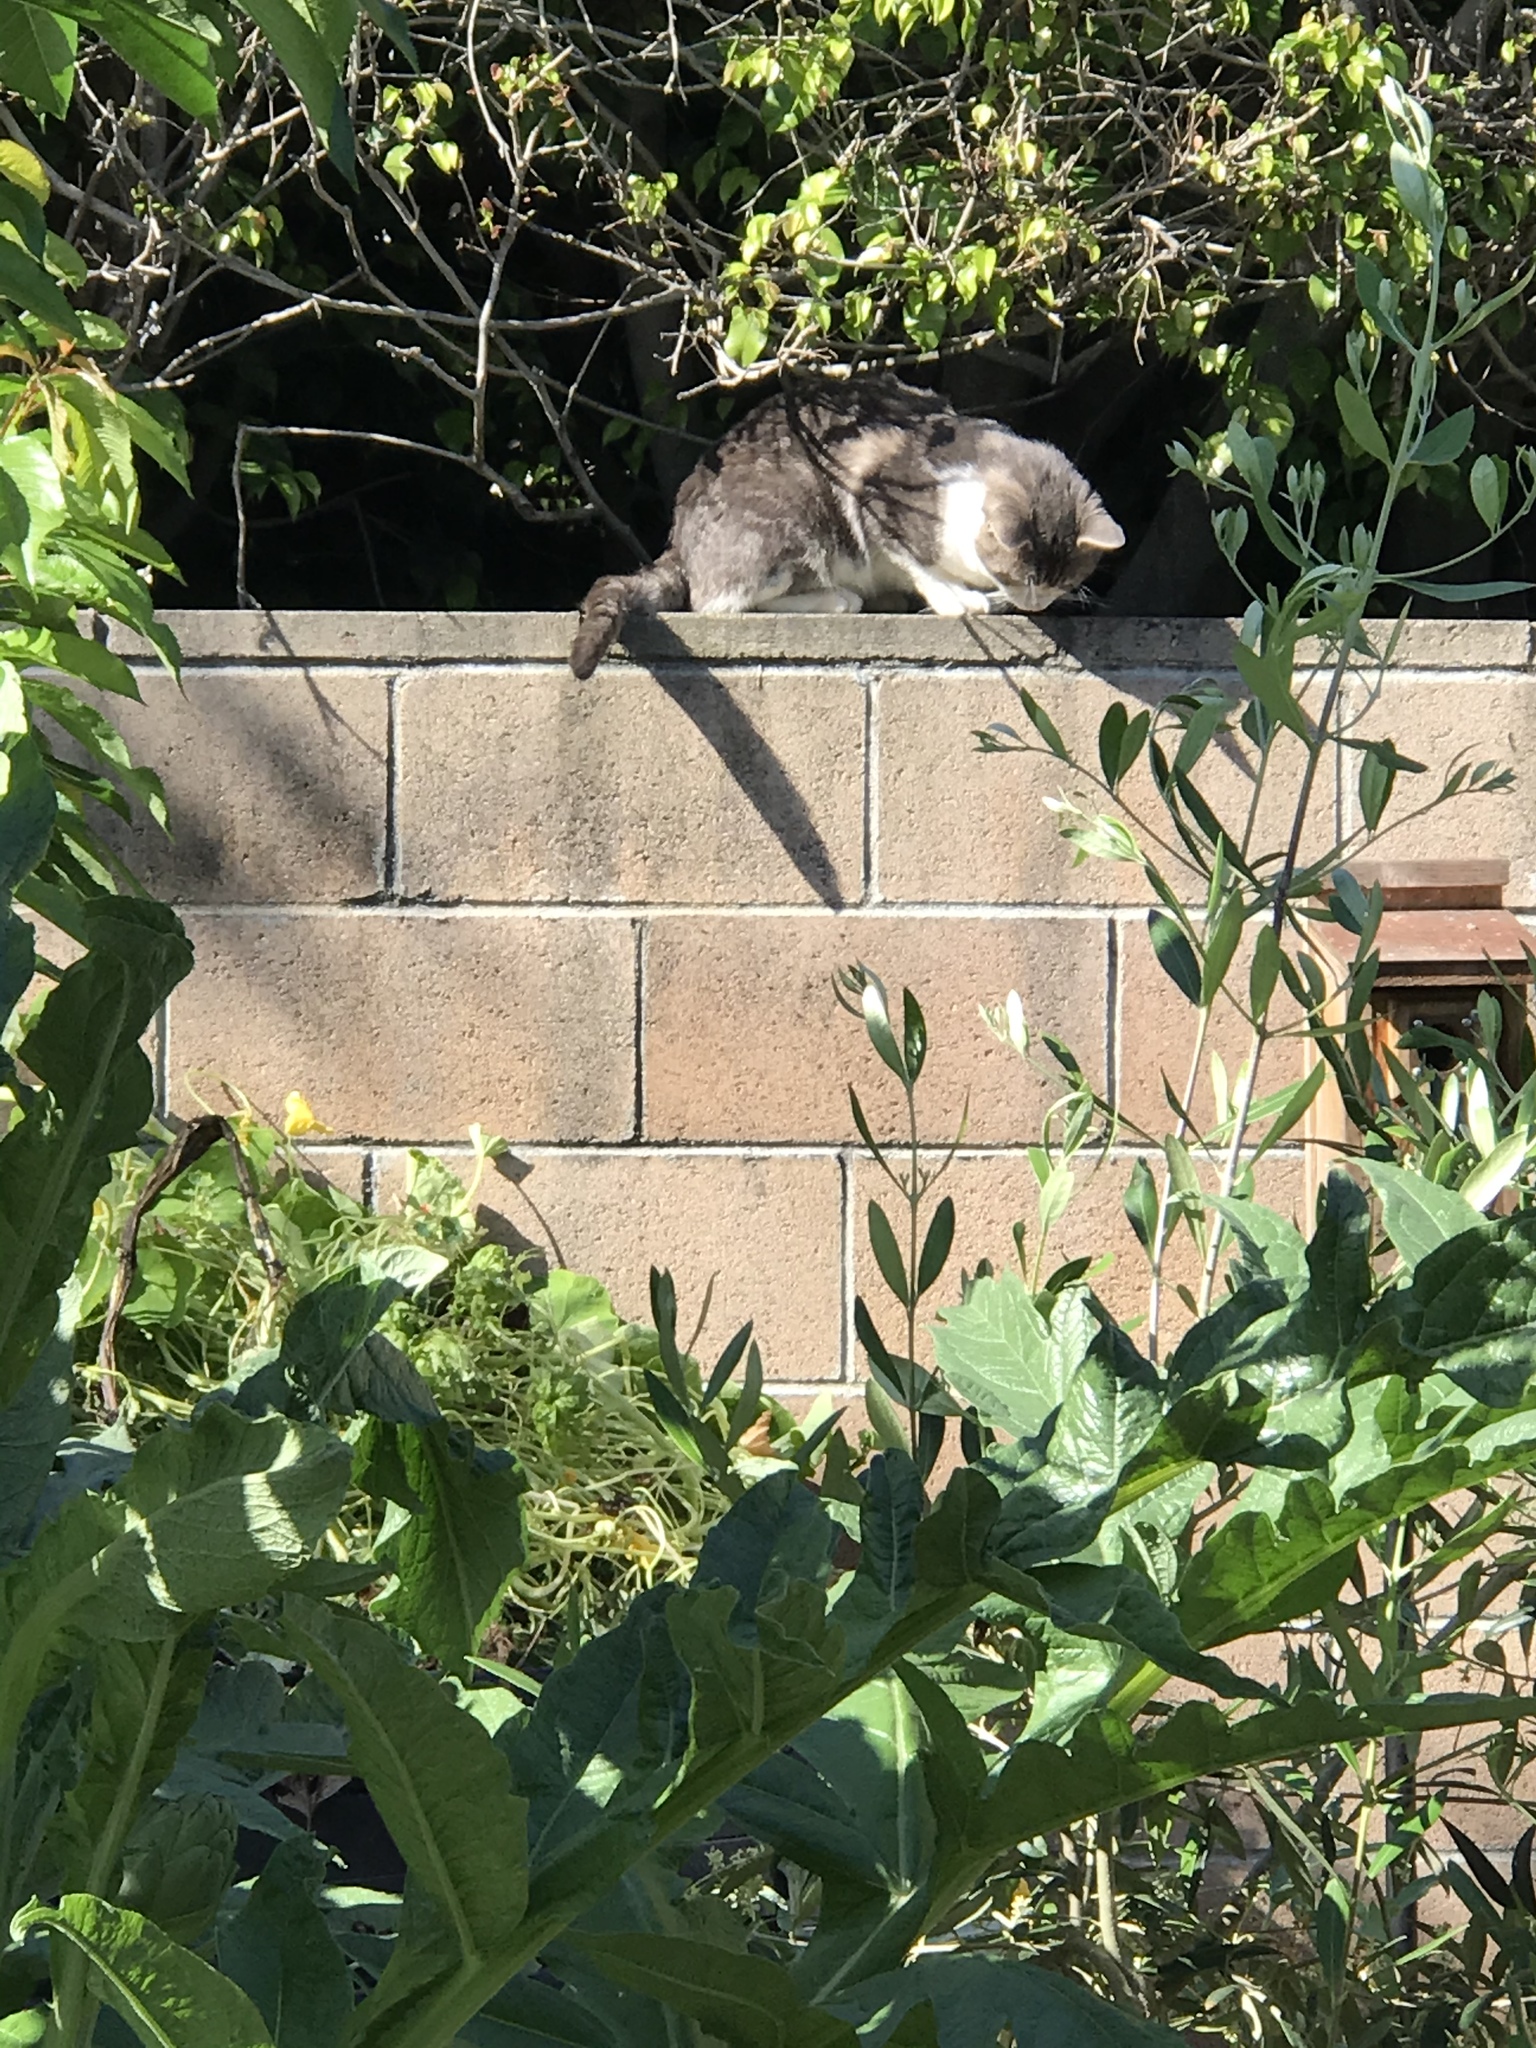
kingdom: Animalia
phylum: Chordata
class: Mammalia
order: Carnivora
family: Felidae
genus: Felis
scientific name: Felis catus
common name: Domestic cat
